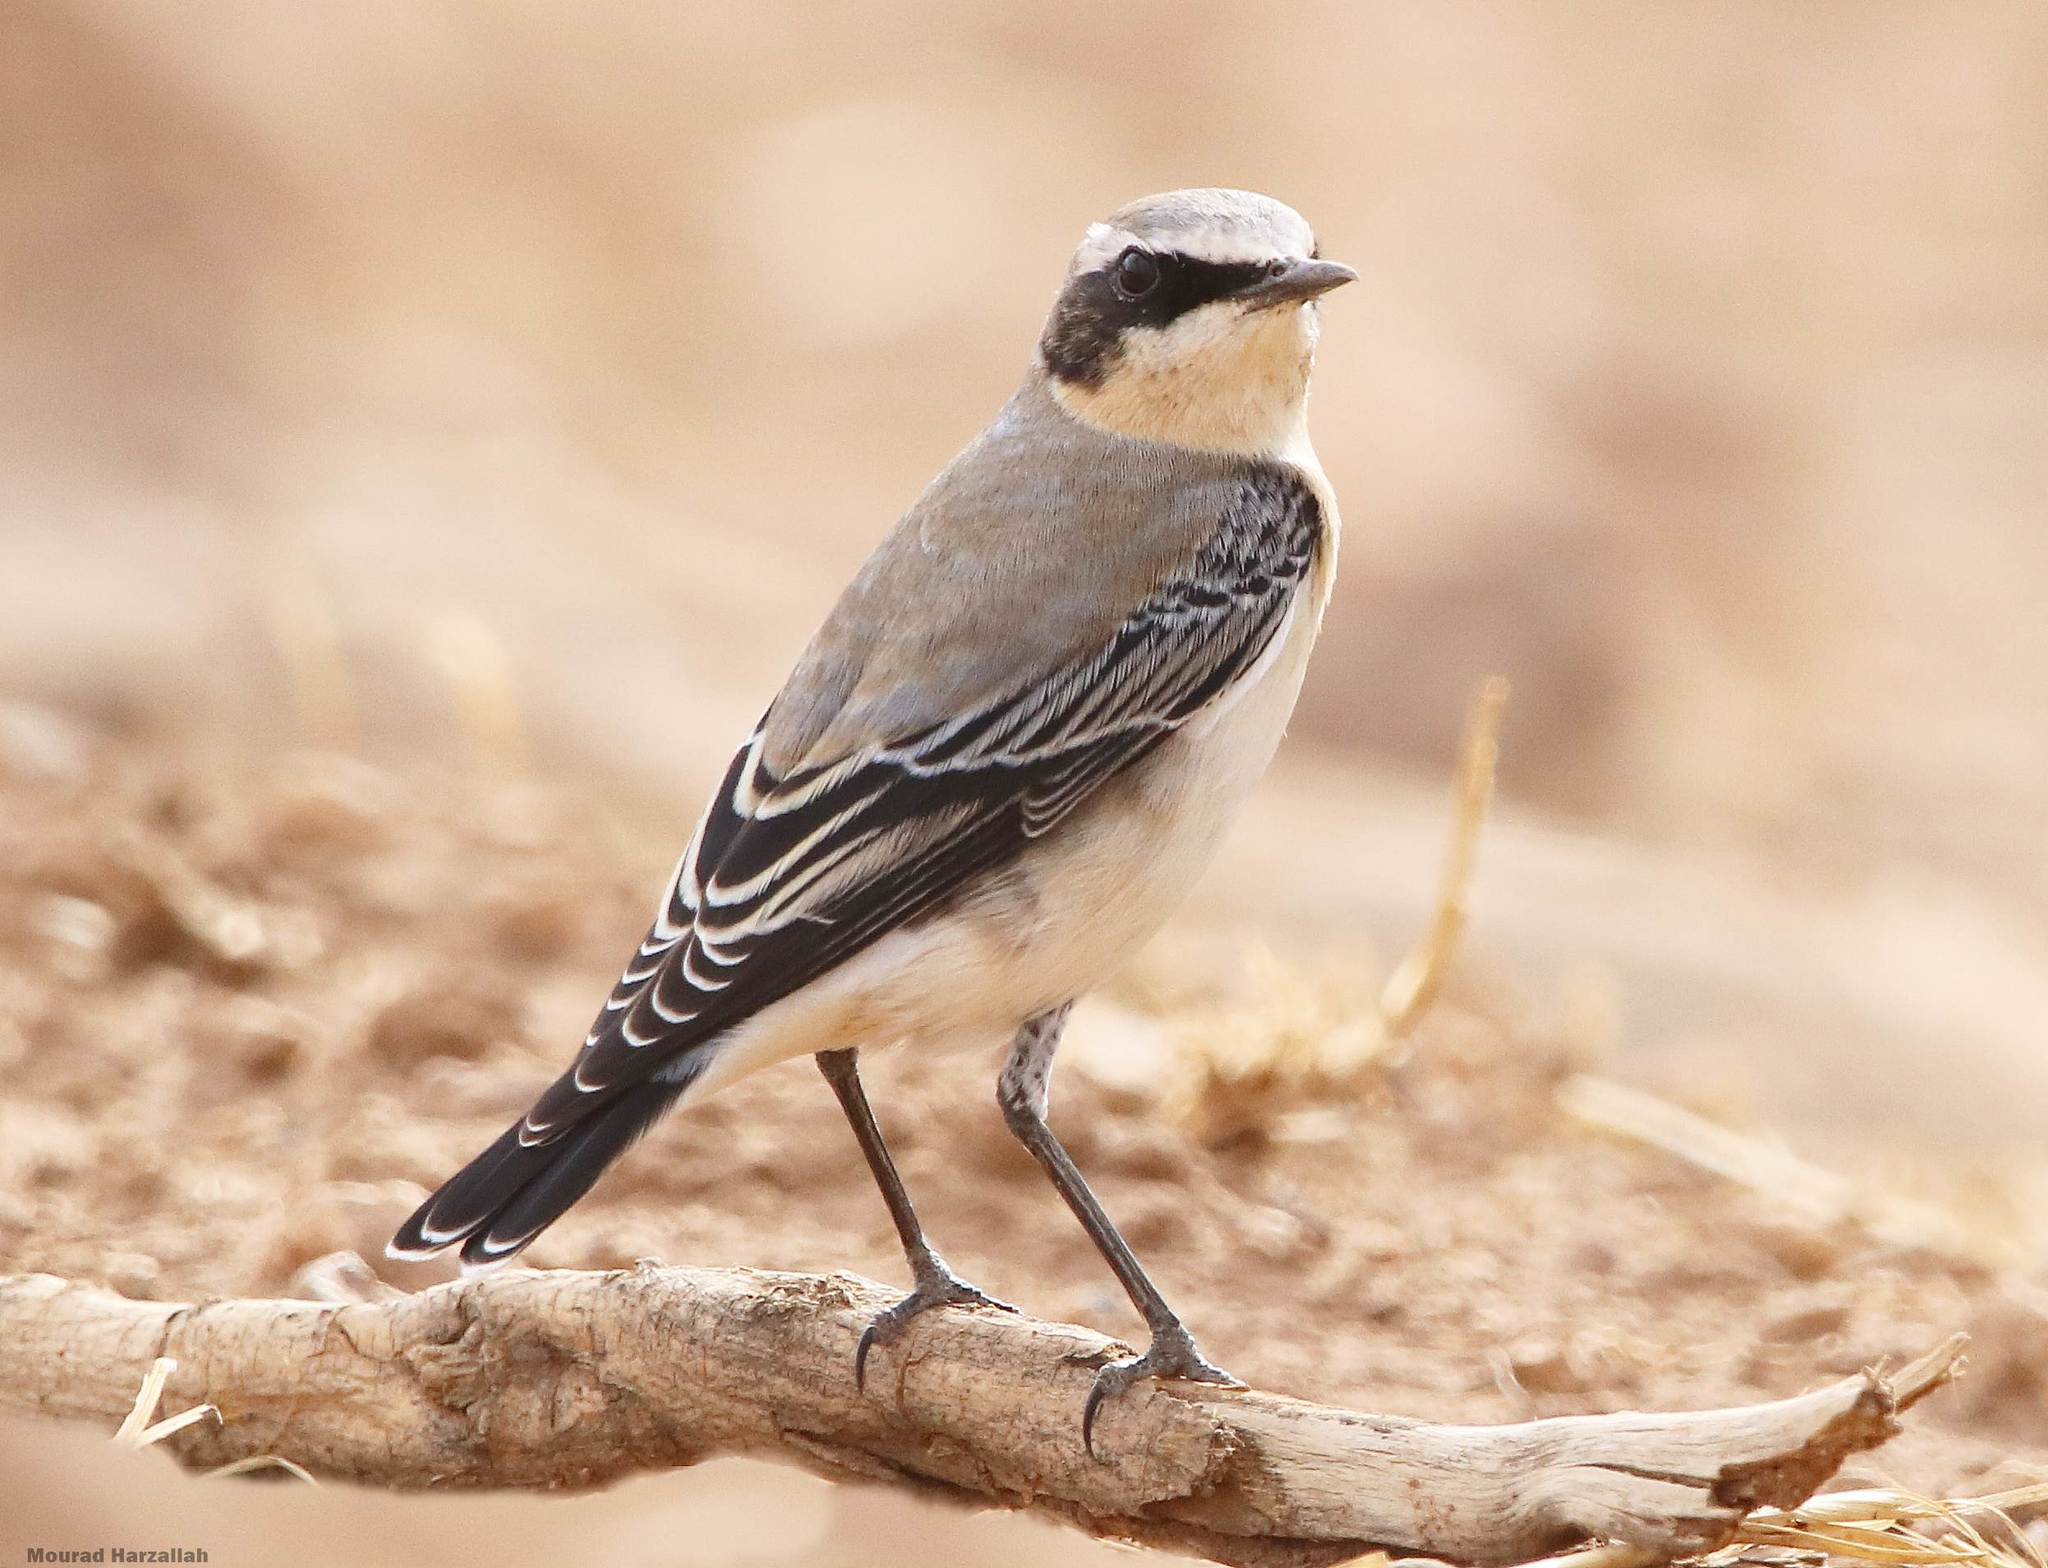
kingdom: Animalia
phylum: Chordata
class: Aves
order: Passeriformes
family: Muscicapidae
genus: Oenanthe
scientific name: Oenanthe oenanthe
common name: Northern wheatear
